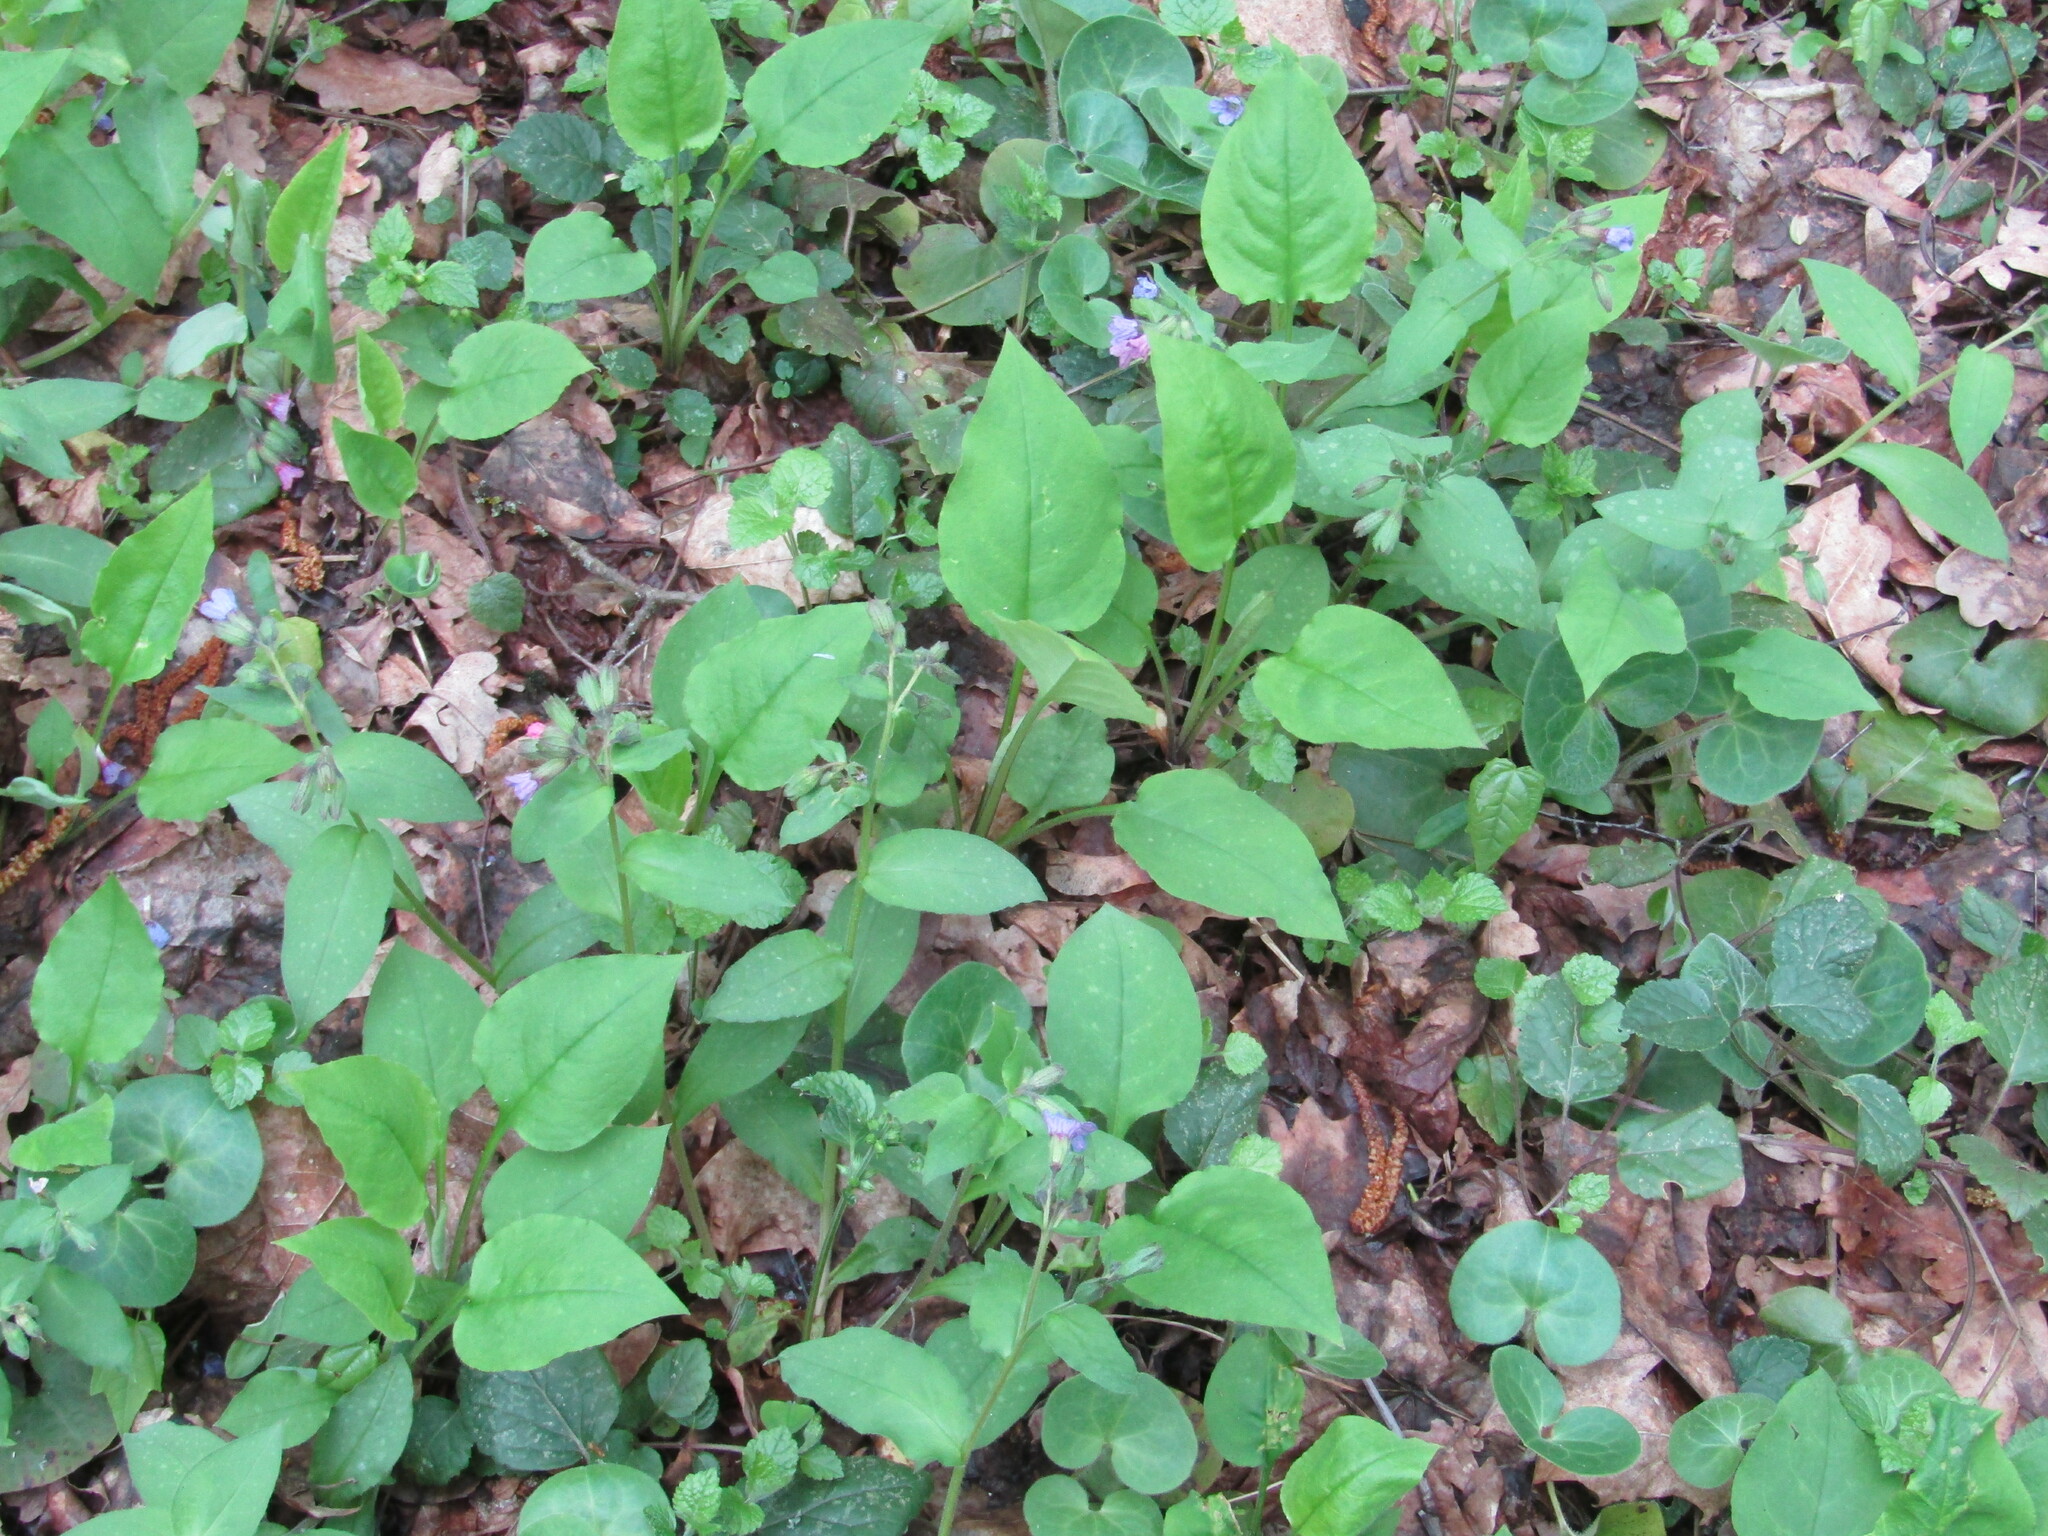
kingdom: Plantae
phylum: Tracheophyta
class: Magnoliopsida
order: Boraginales
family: Boraginaceae
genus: Pulmonaria
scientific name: Pulmonaria obscura
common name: Suffolk lungwort
